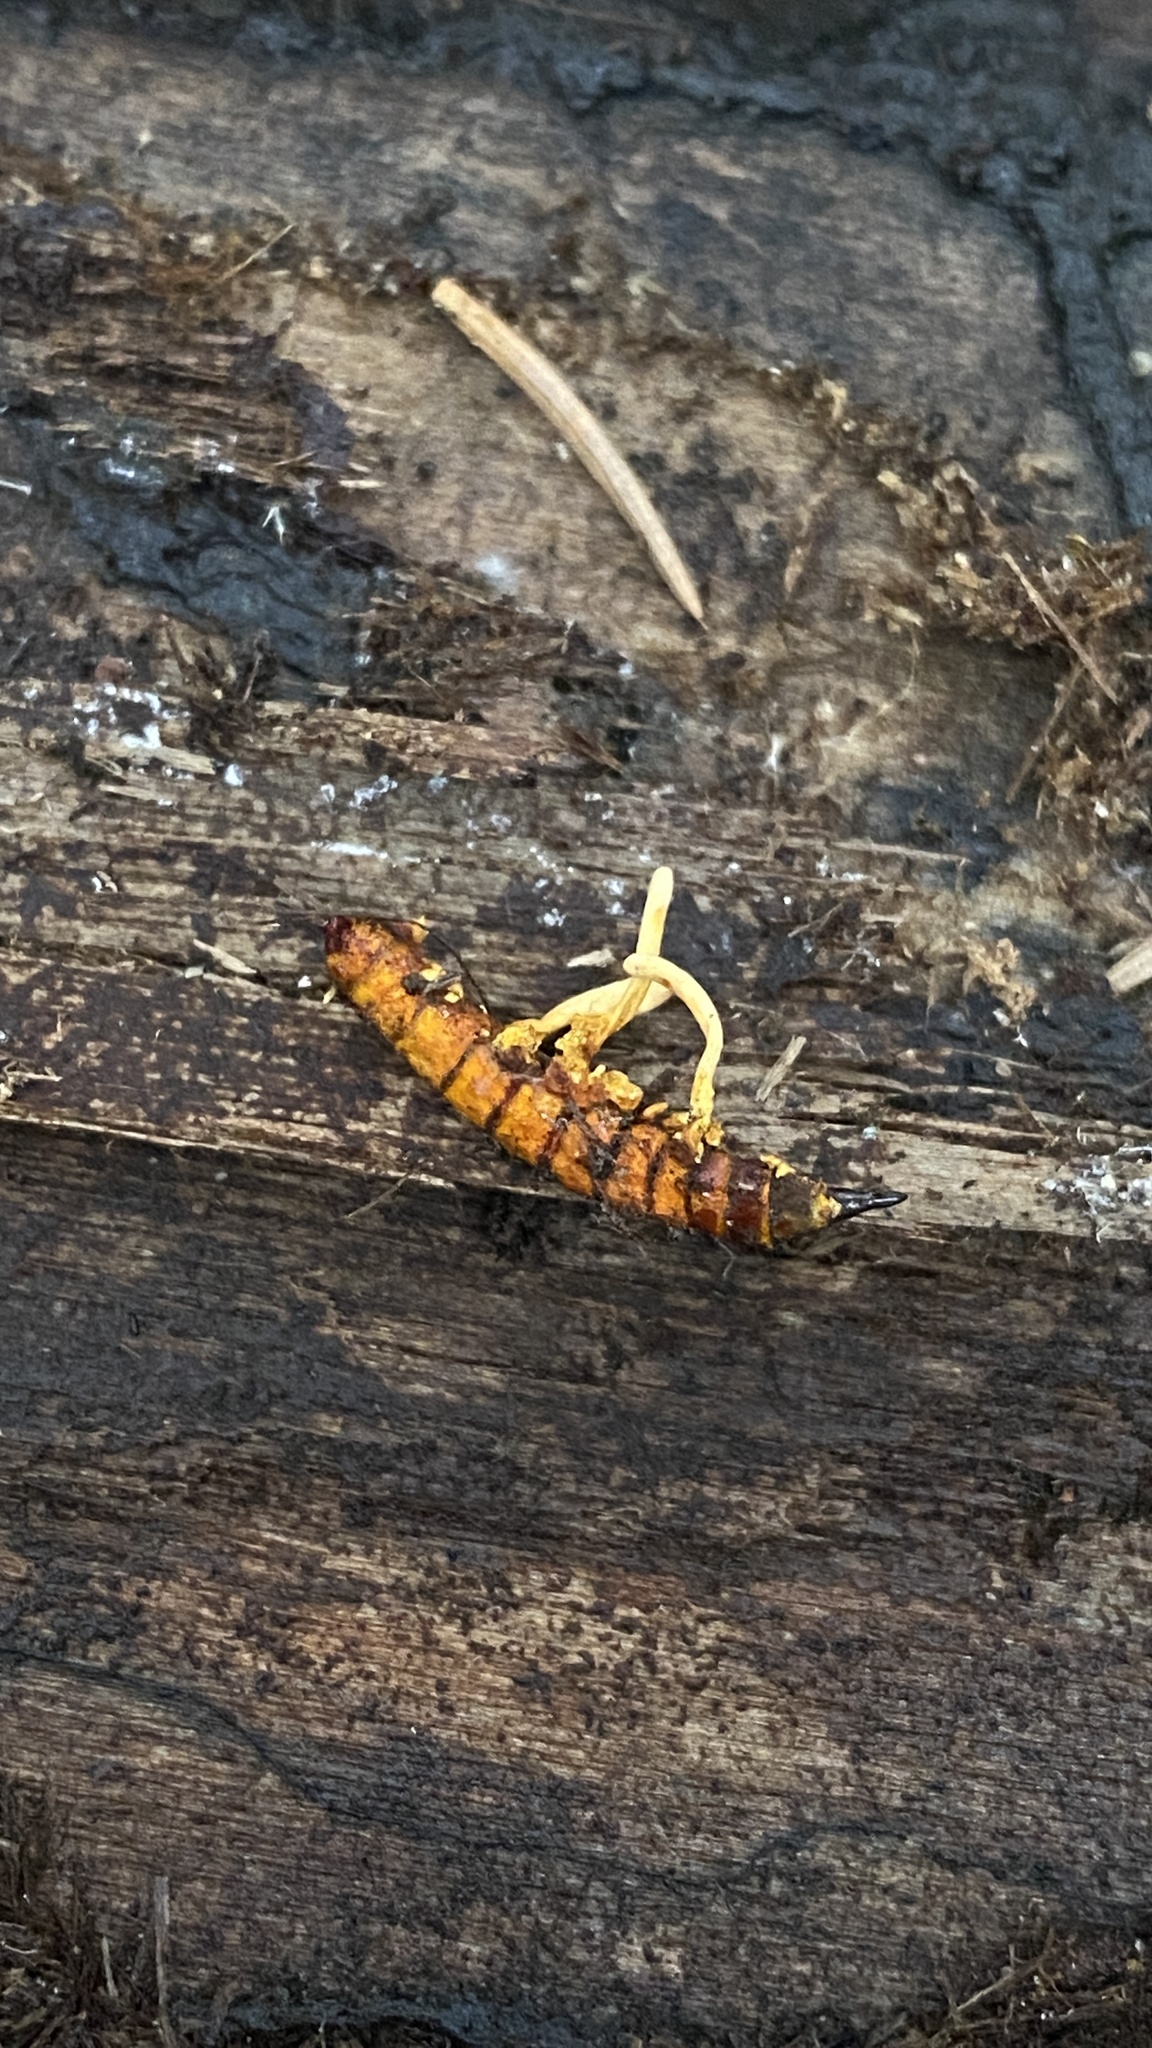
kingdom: Fungi
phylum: Ascomycota
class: Sordariomycetes
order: Hypocreales
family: Ophiocordycipitaceae
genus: Ophiocordyceps
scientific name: Ophiocordyceps variabilis
